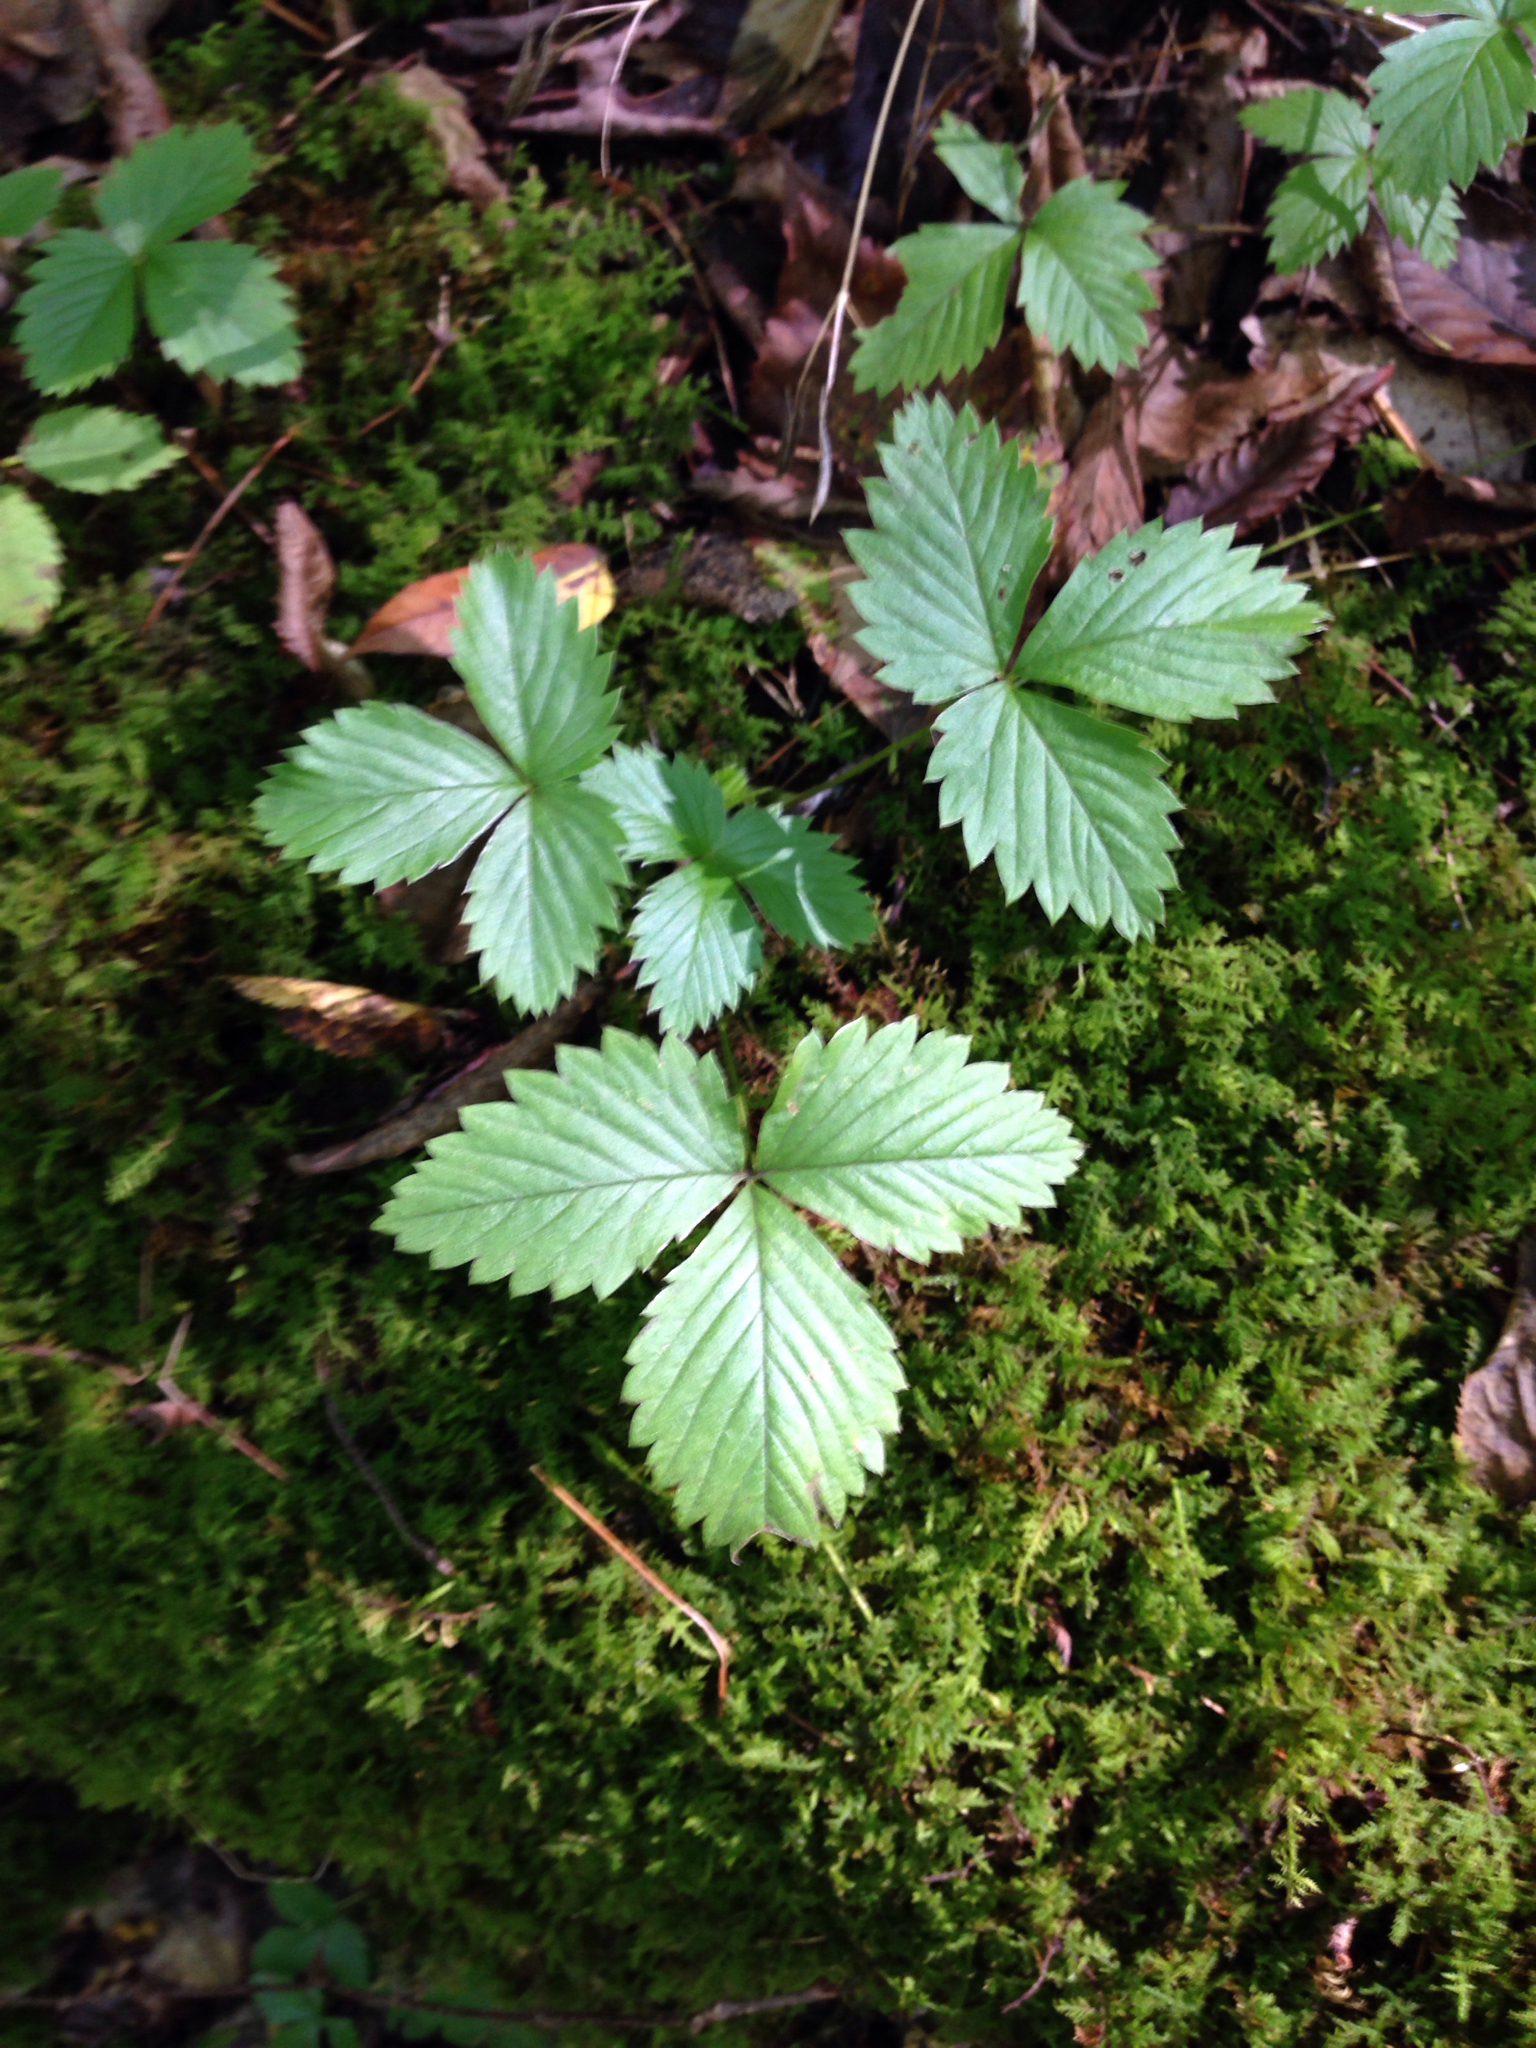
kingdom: Plantae
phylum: Tracheophyta
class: Magnoliopsida
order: Rosales
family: Rosaceae
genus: Fragaria
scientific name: Fragaria vesca
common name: Wild strawberry
